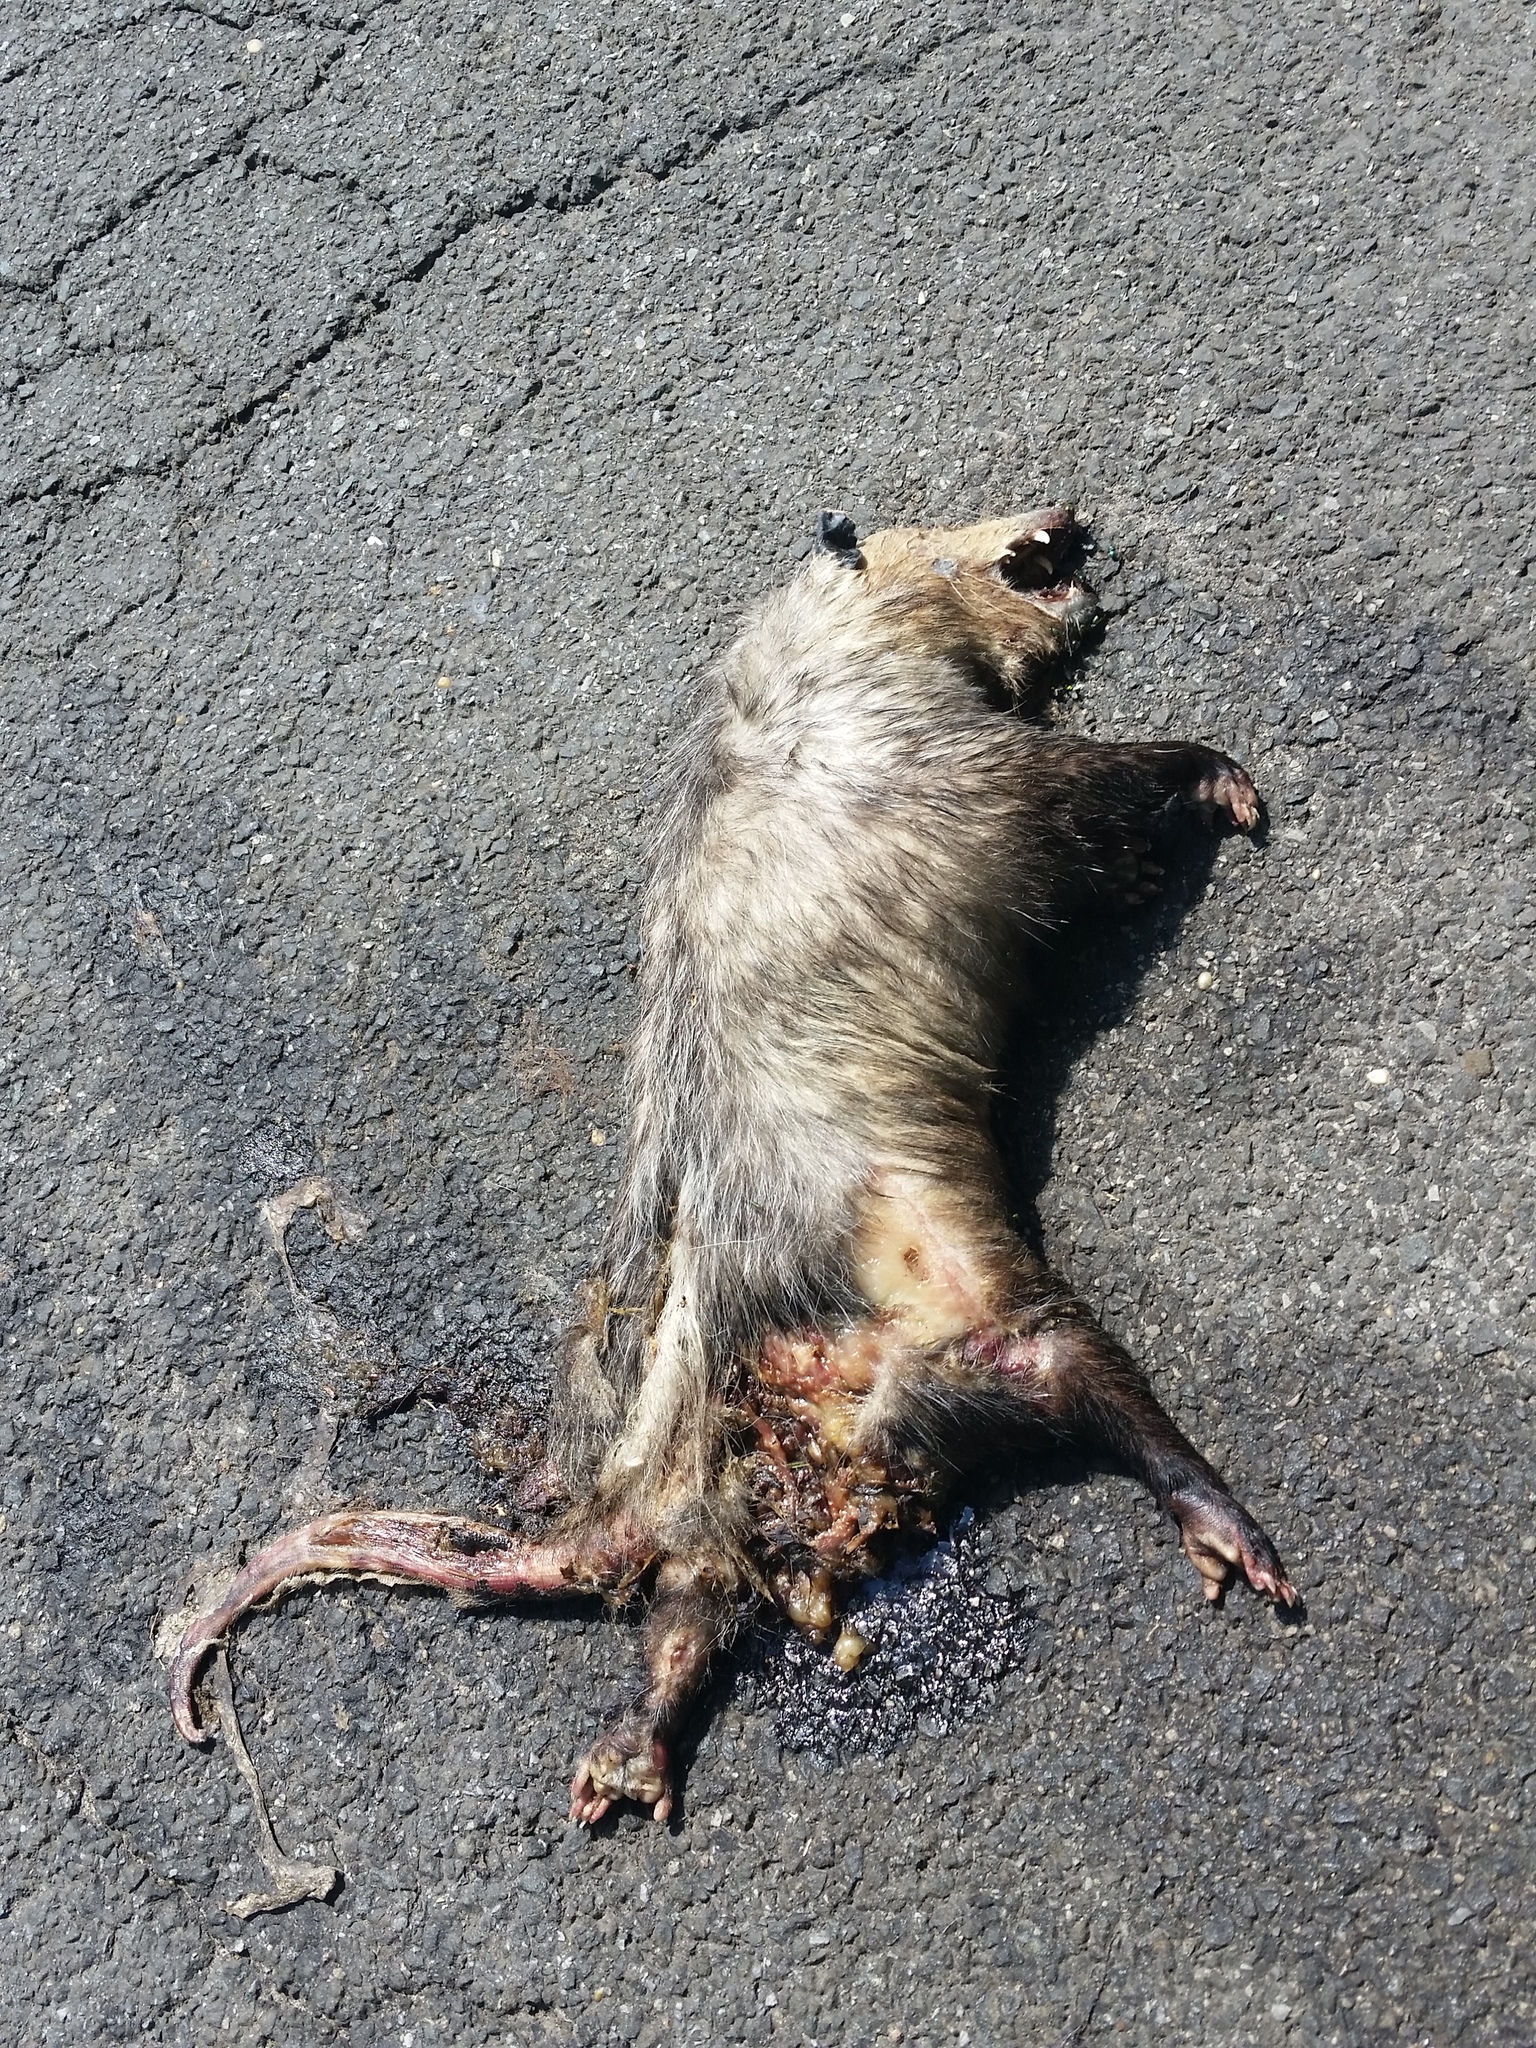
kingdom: Animalia
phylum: Chordata
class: Mammalia
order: Didelphimorphia
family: Didelphidae
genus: Didelphis
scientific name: Didelphis virginiana
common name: Virginia opossum
